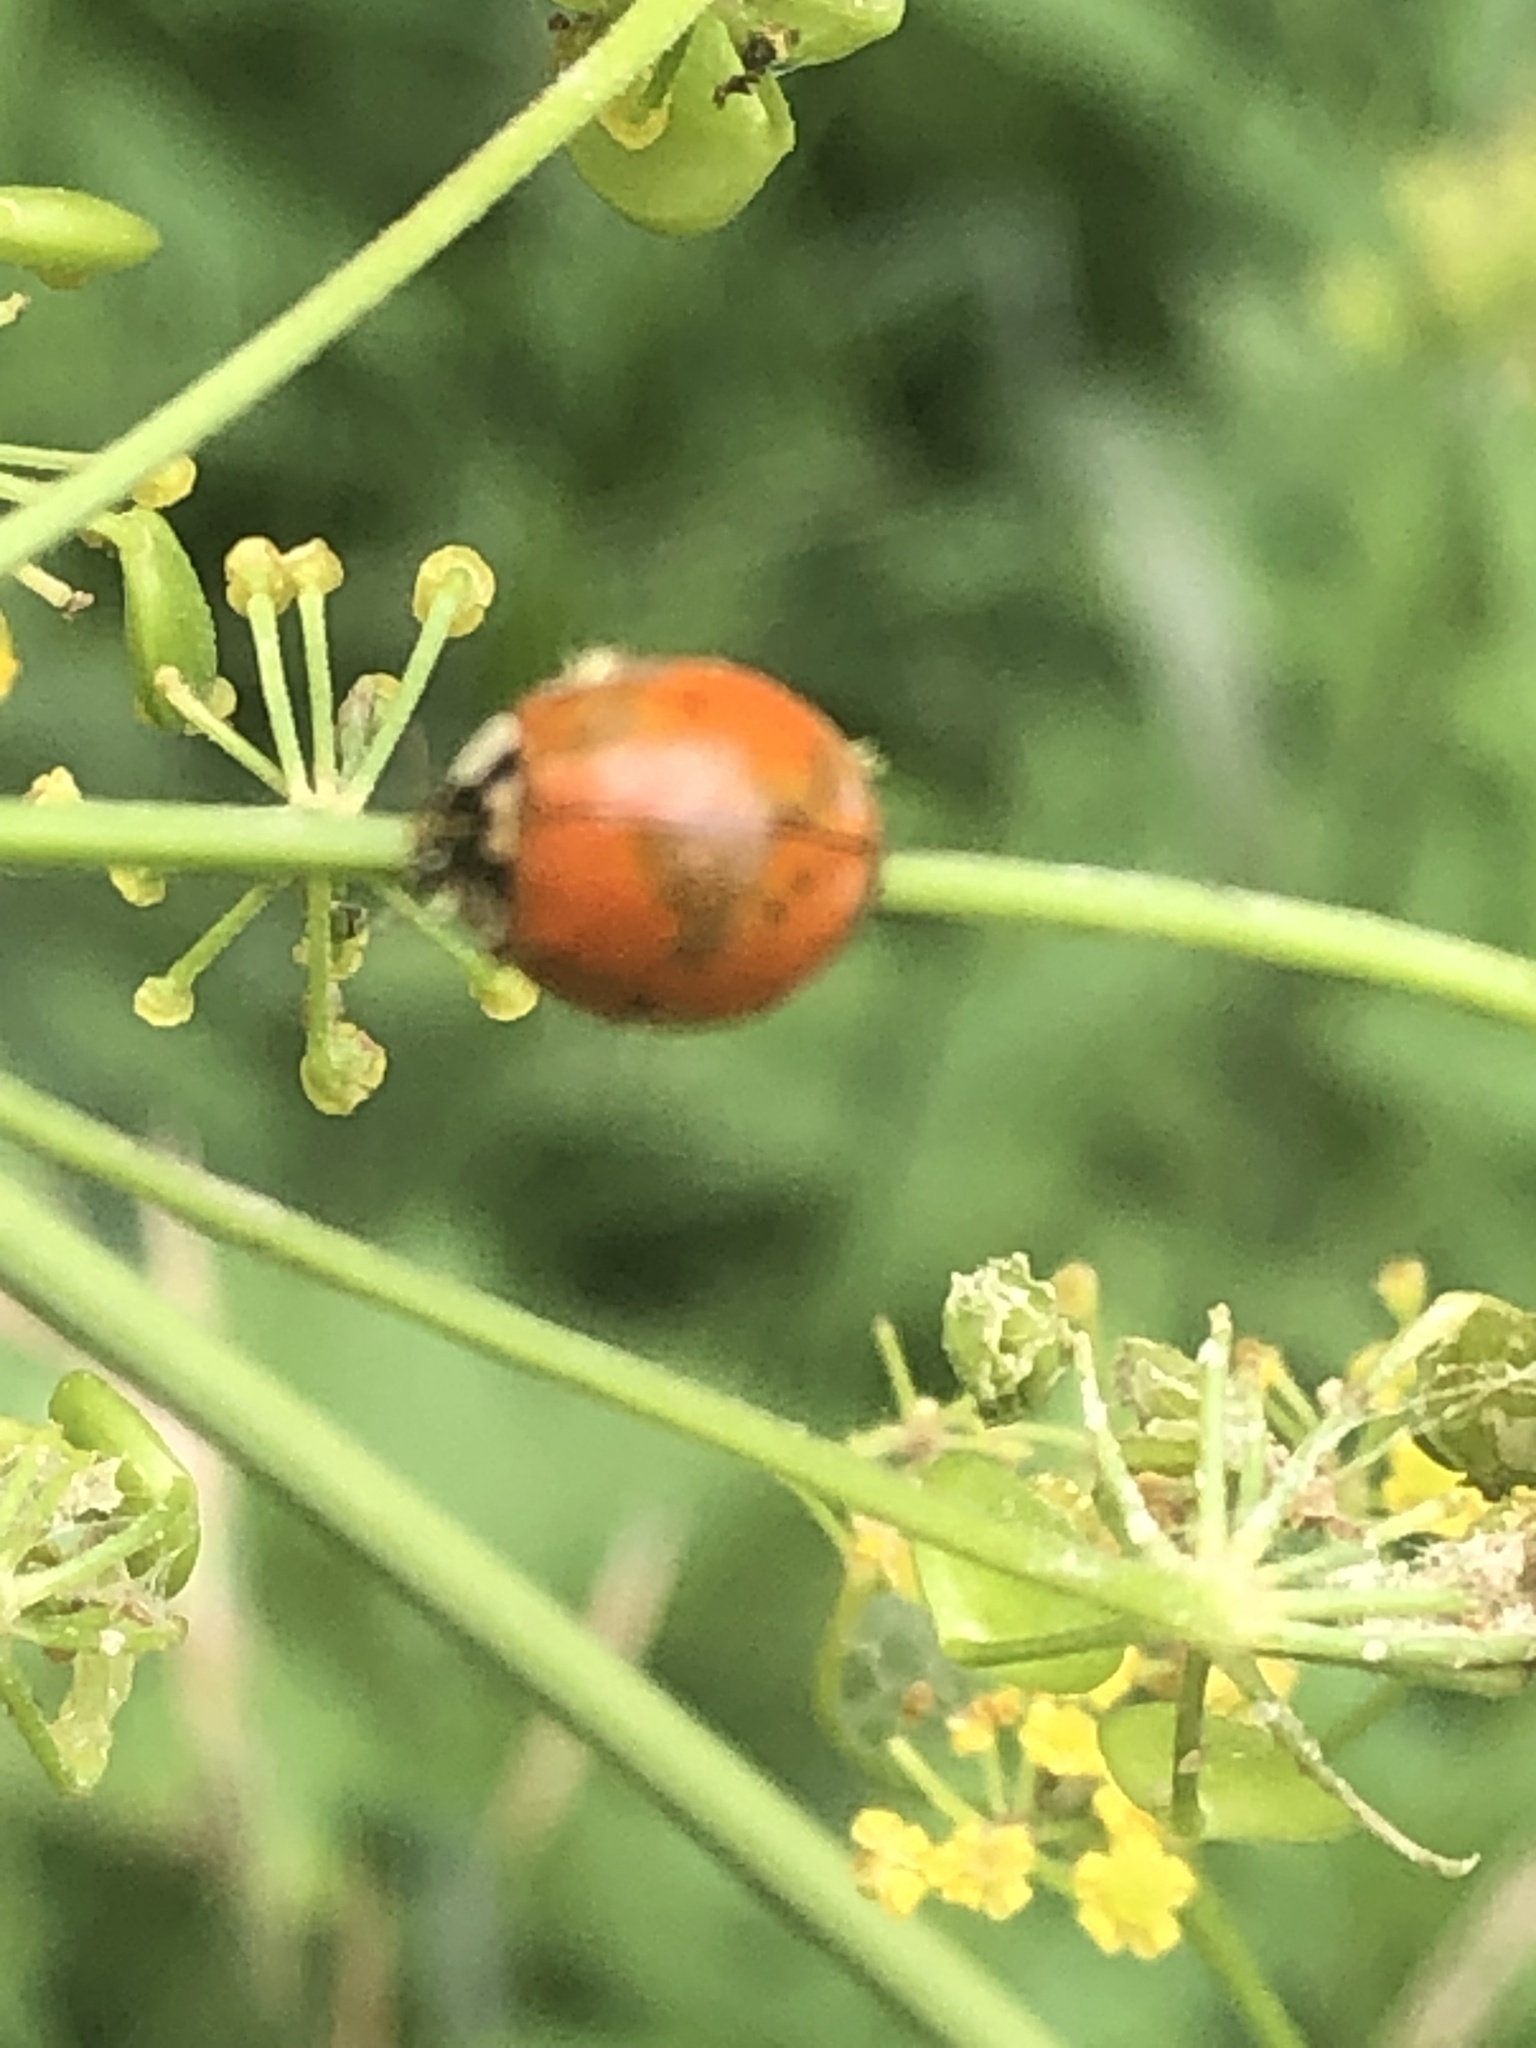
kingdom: Animalia
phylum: Arthropoda
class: Insecta
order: Coleoptera
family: Coccinellidae
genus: Harmonia
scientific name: Harmonia axyridis
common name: Harlequin ladybird
